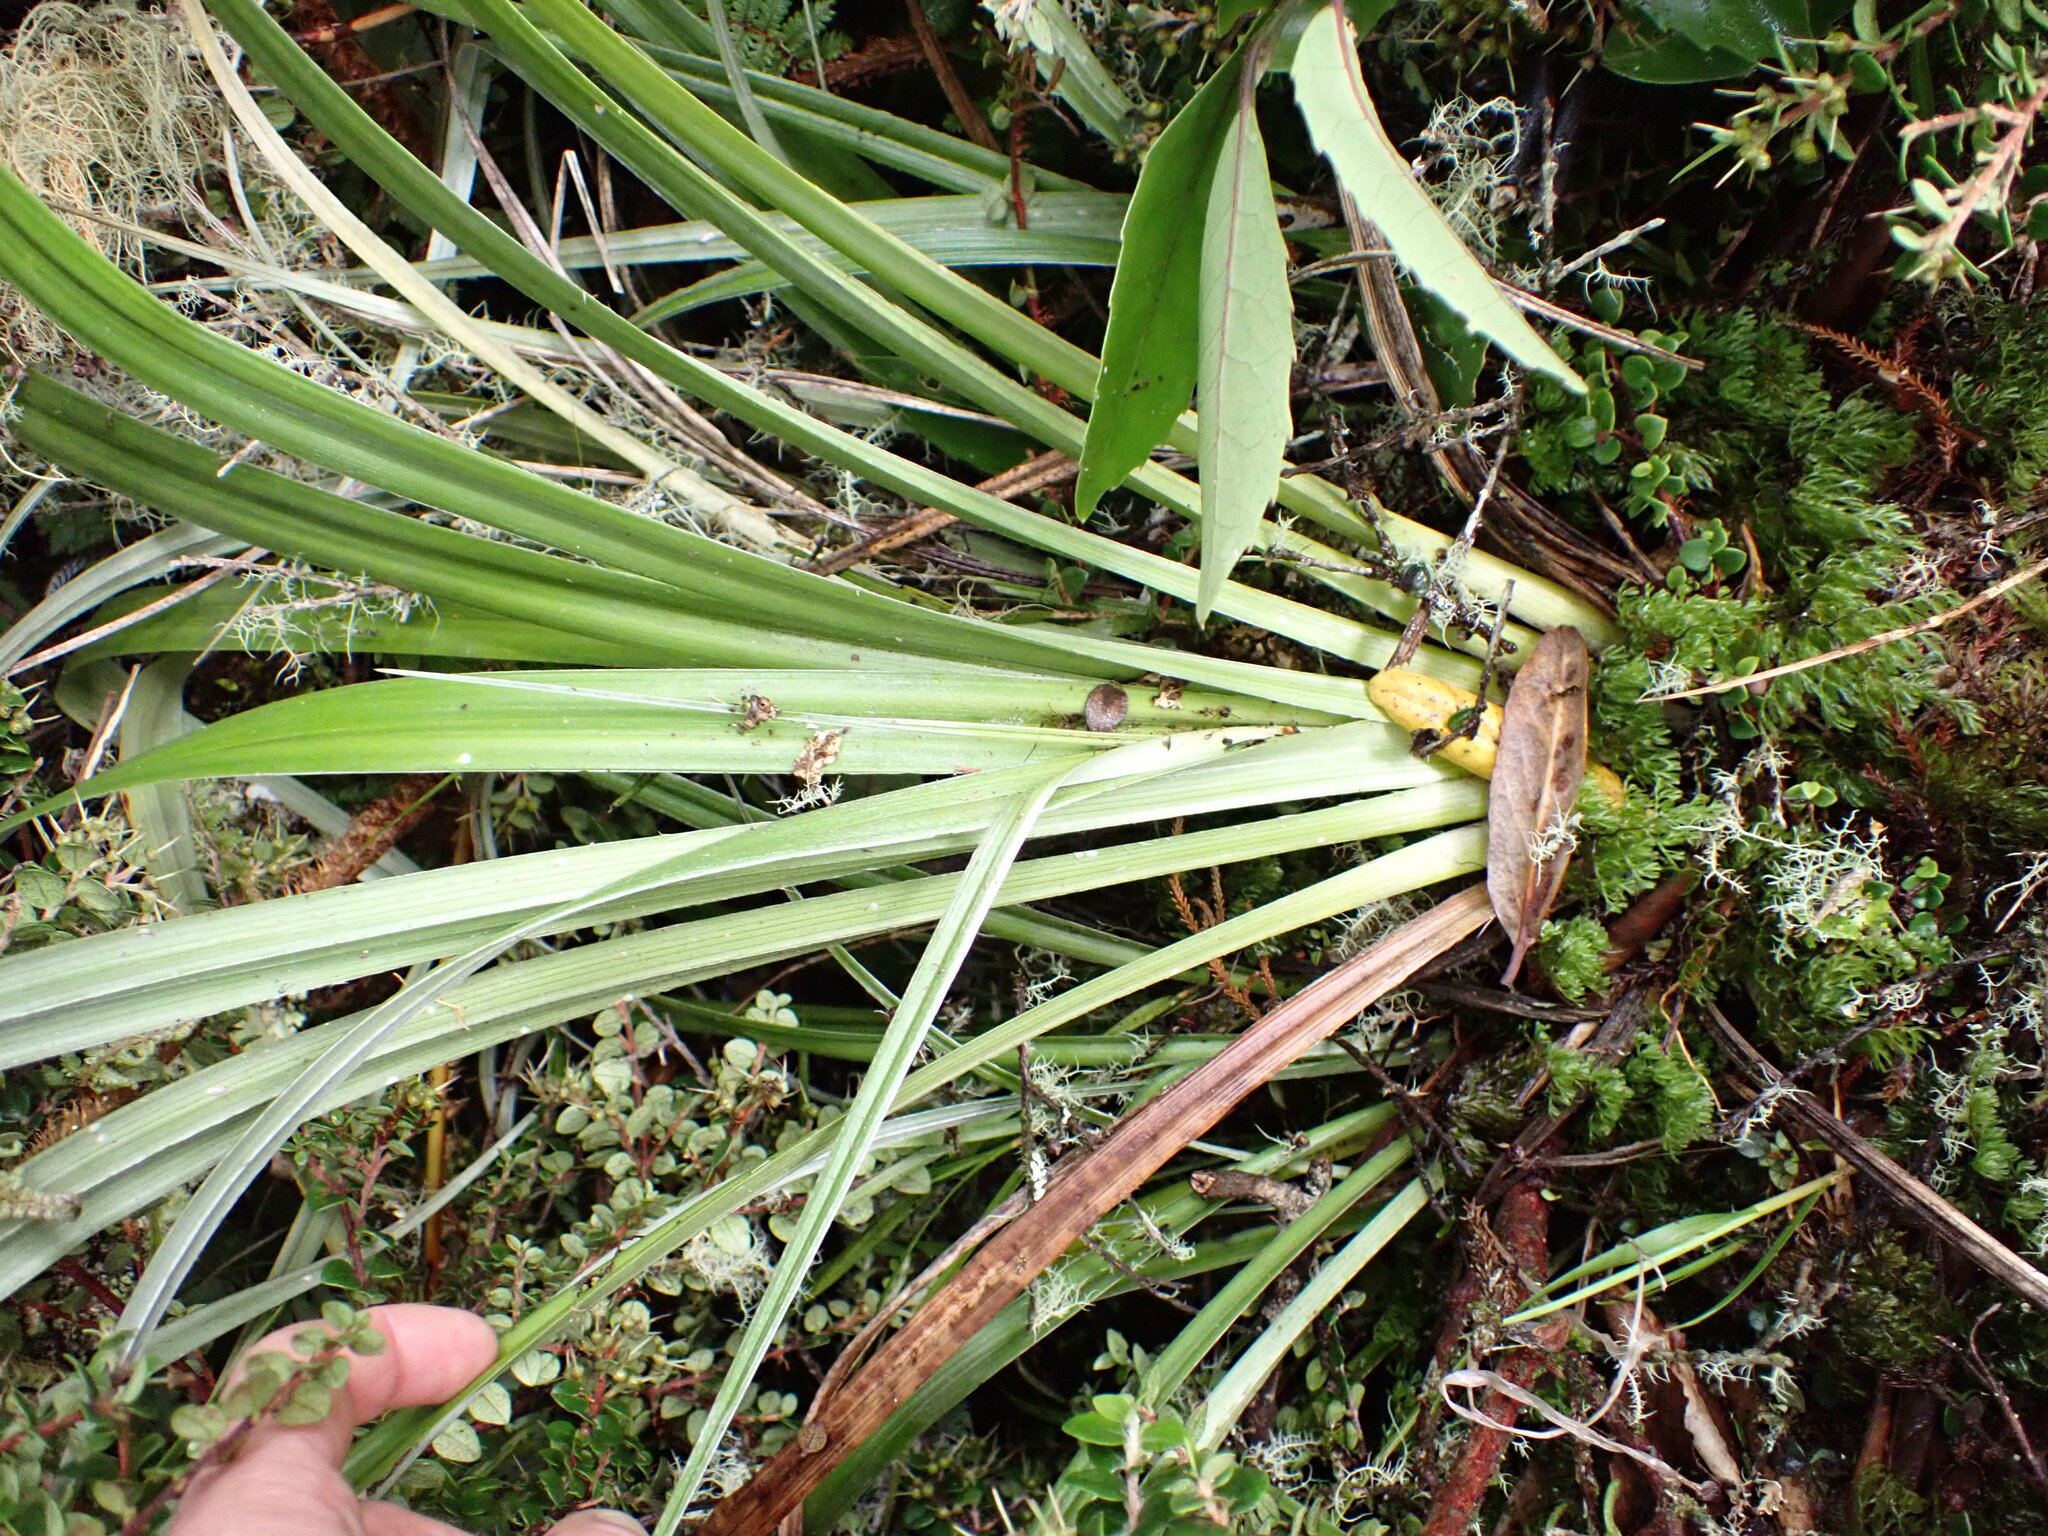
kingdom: Plantae
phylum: Tracheophyta
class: Liliopsida
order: Asparagales
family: Asteliaceae
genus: Astelia
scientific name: Astelia solandri
